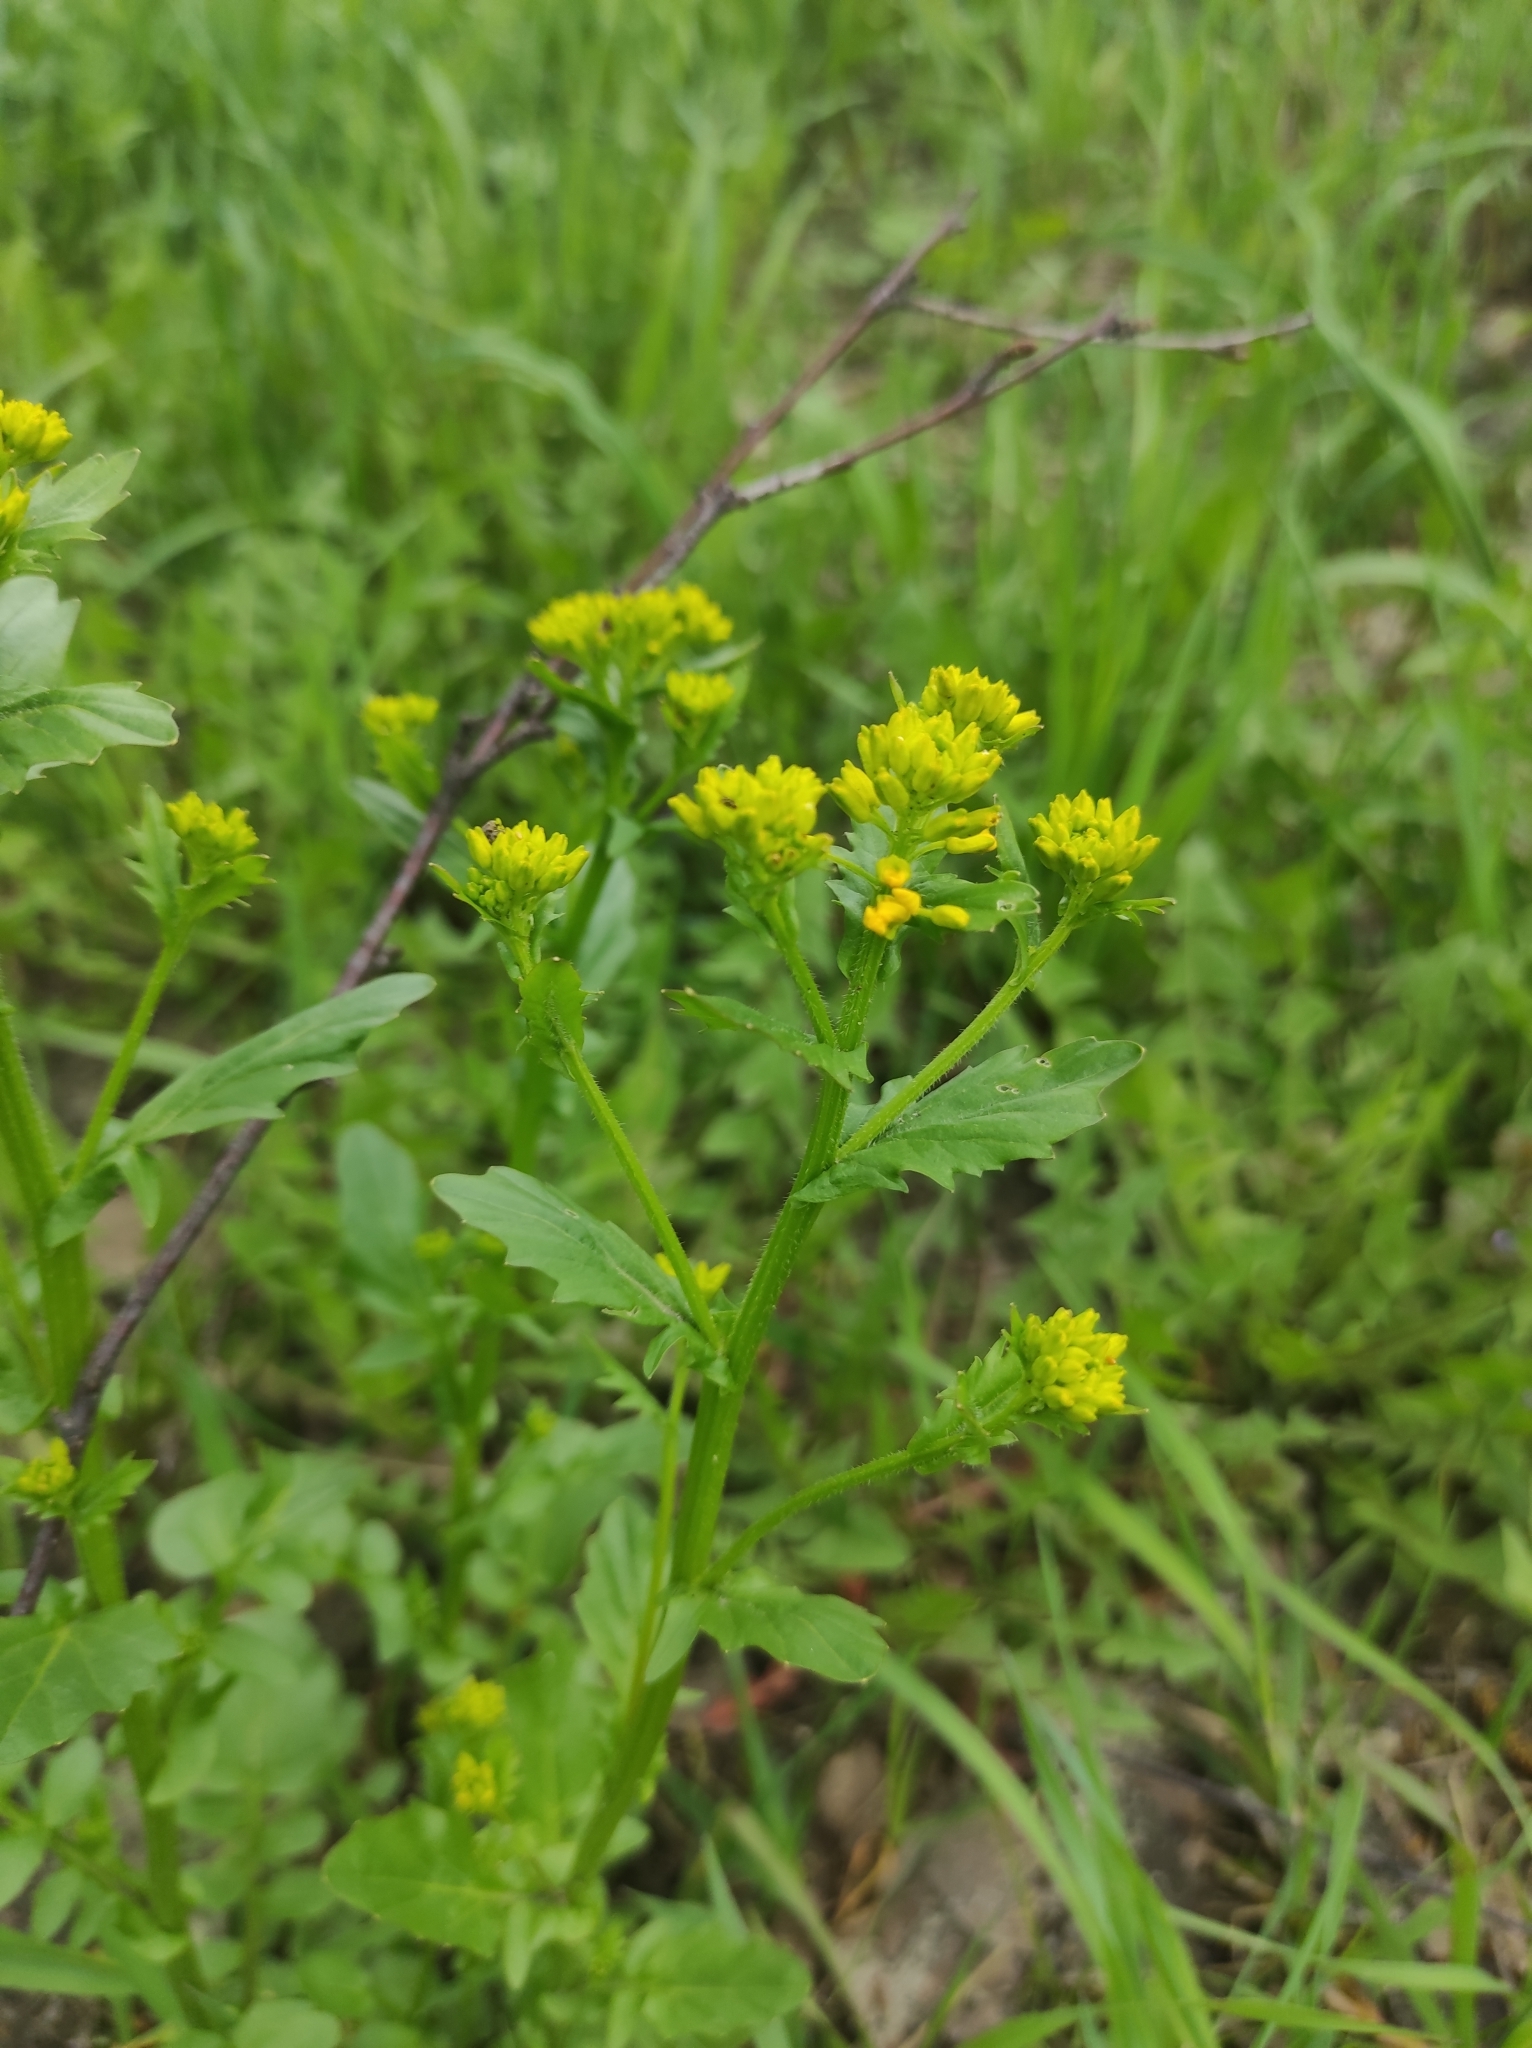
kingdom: Plantae
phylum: Tracheophyta
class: Magnoliopsida
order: Brassicales
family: Brassicaceae
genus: Barbarea
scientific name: Barbarea vulgaris
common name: Cressy-greens
